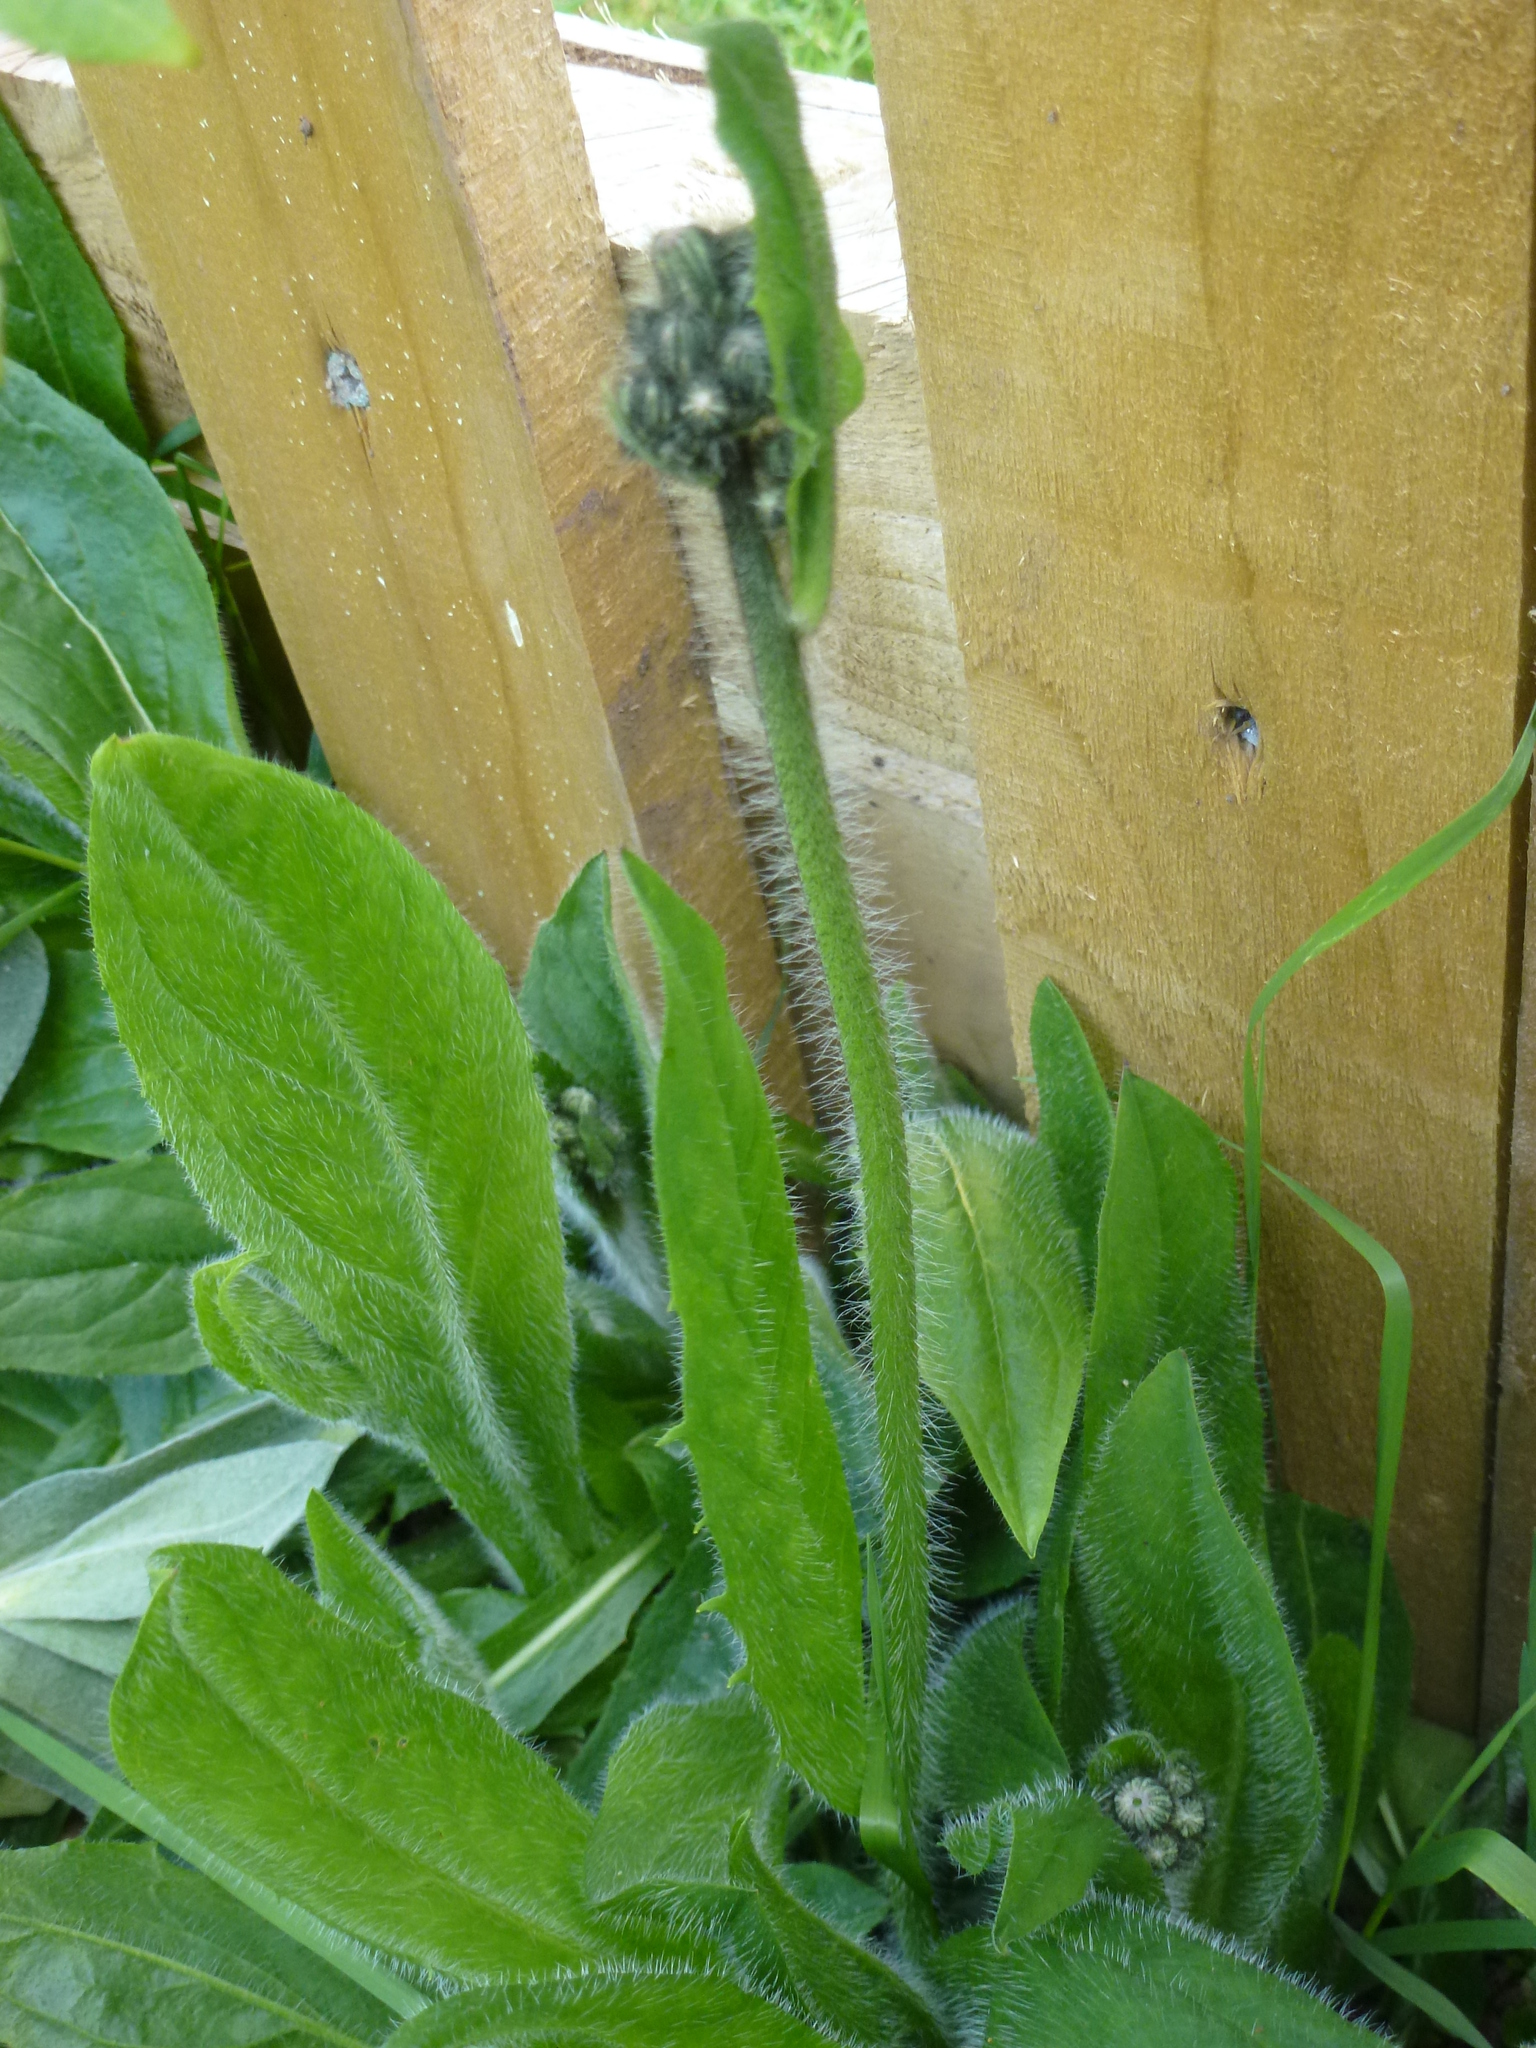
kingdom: Plantae
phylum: Tracheophyta
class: Magnoliopsida
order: Asterales
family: Asteraceae
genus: Pilosella
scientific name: Pilosella aurantiaca
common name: Fox-and-cubs
